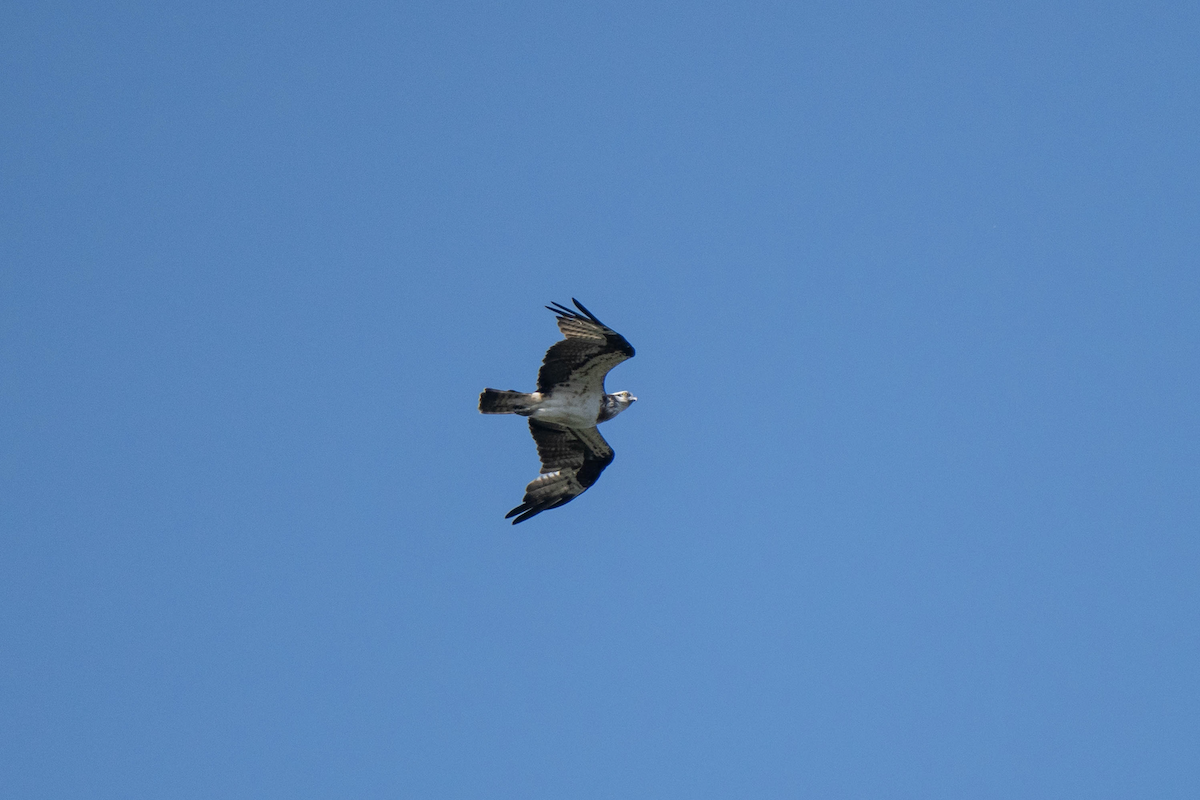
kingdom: Animalia
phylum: Chordata
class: Aves
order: Accipitriformes
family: Pandionidae
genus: Pandion
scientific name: Pandion haliaetus
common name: Osprey
